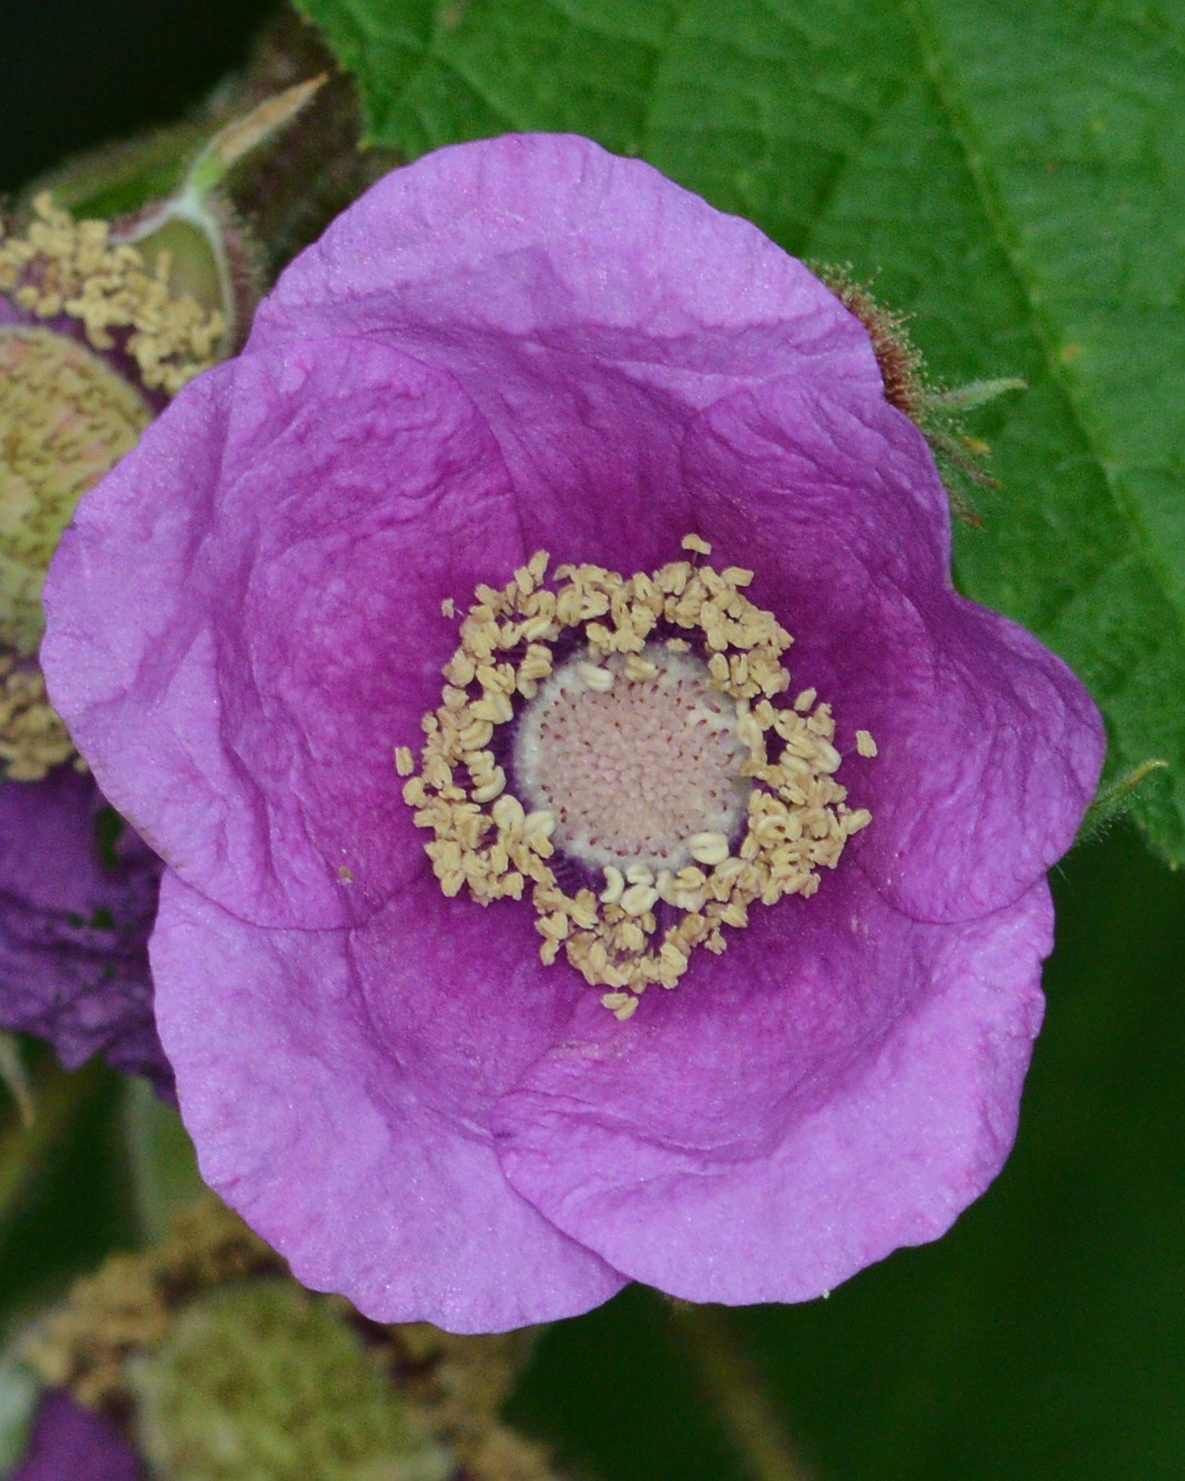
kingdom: Plantae
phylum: Tracheophyta
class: Magnoliopsida
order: Rosales
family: Rosaceae
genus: Rubus
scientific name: Rubus odoratus
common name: Purple-flowered raspberry
